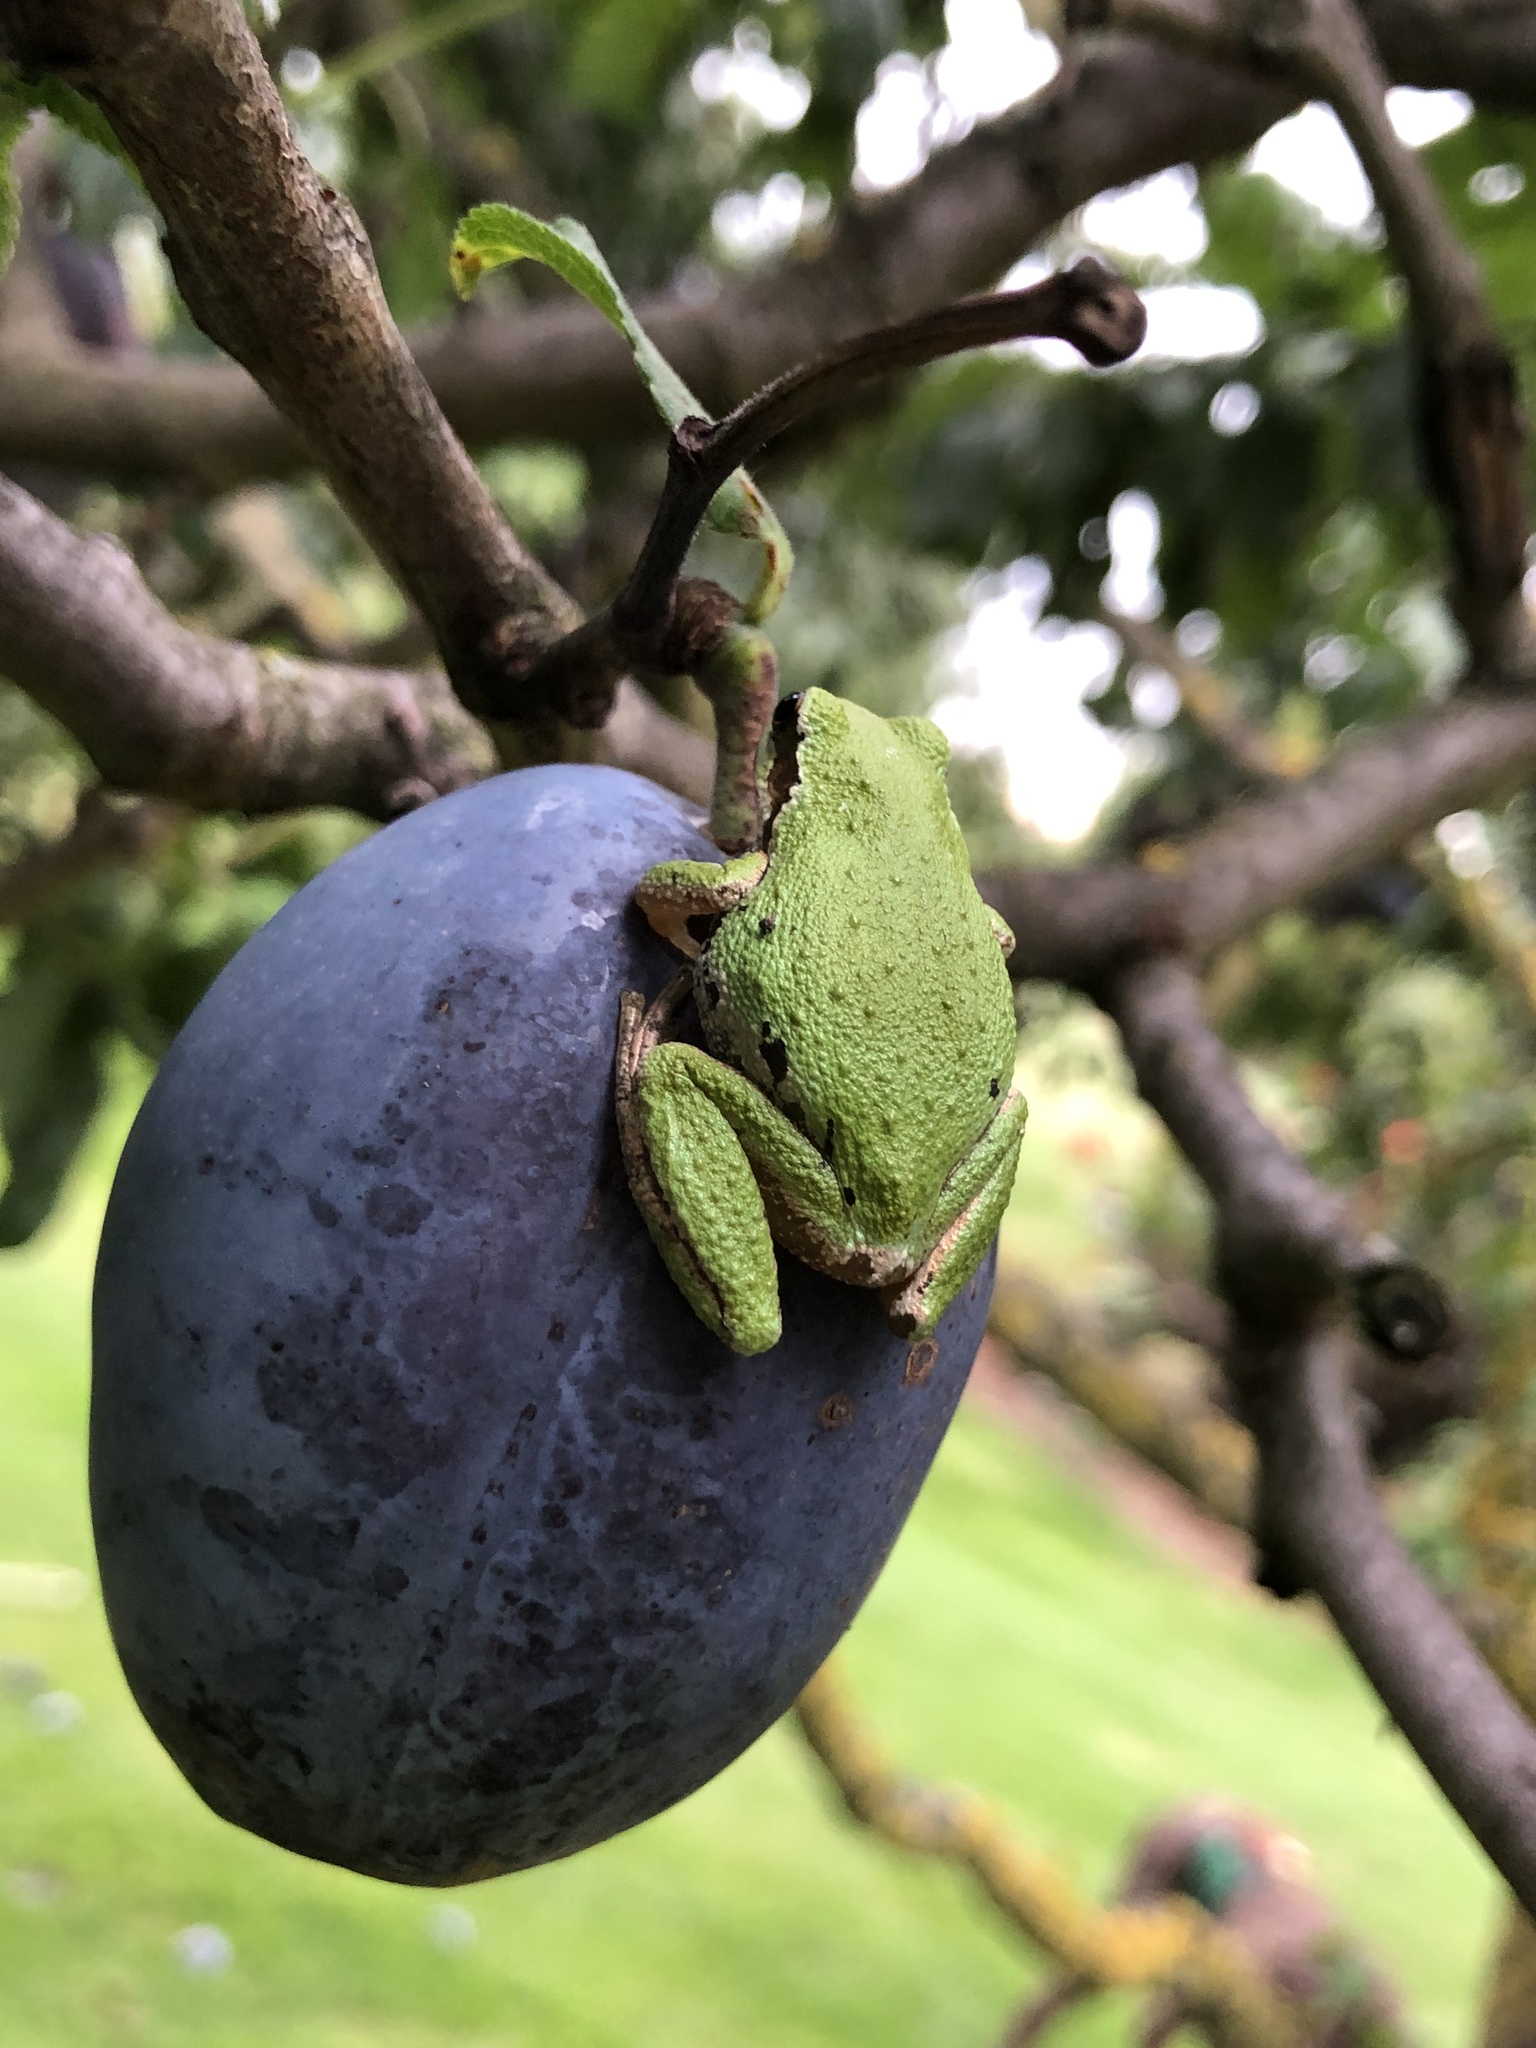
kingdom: Animalia
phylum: Chordata
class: Amphibia
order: Anura
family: Hylidae
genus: Pseudacris
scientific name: Pseudacris regilla
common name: Pacific chorus frog
